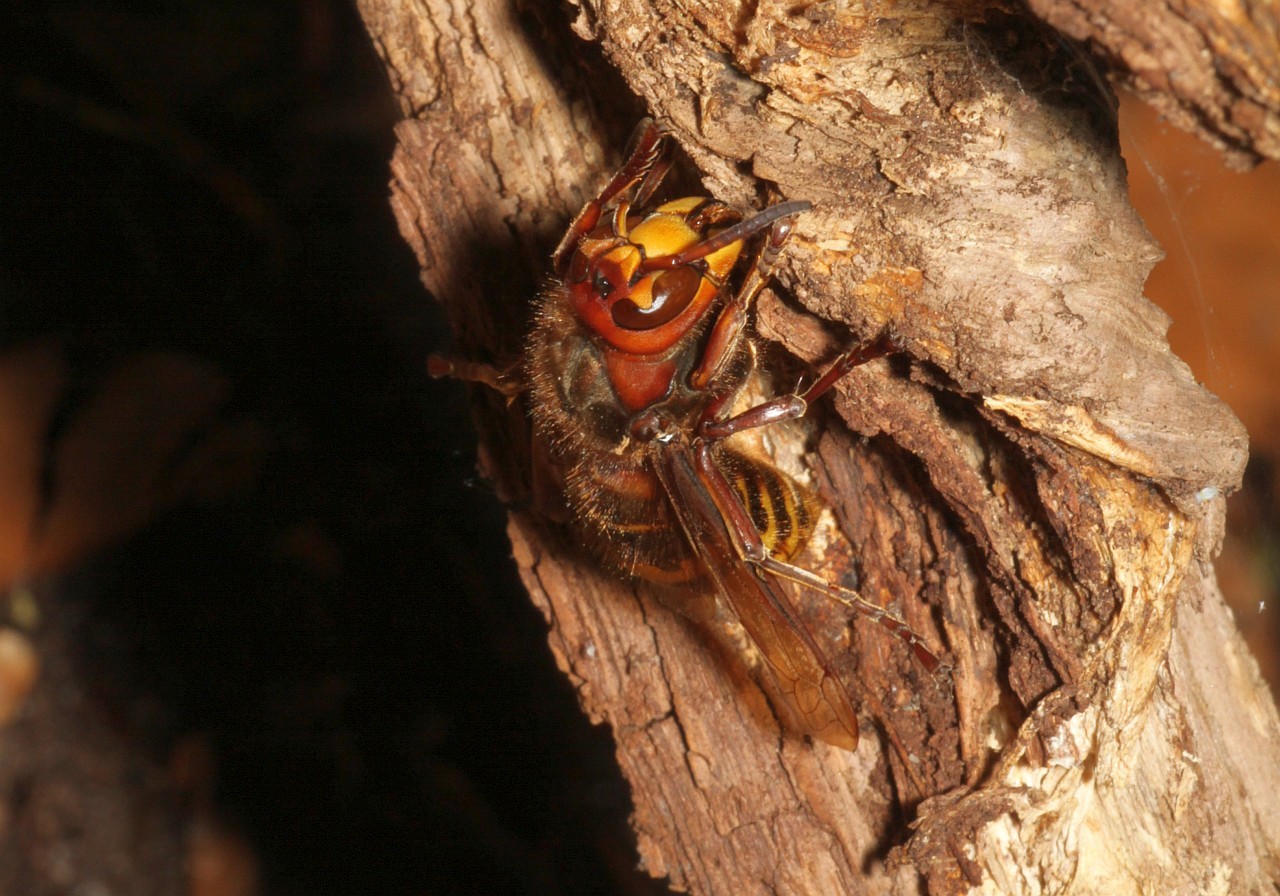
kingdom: Animalia
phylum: Arthropoda
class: Insecta
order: Hymenoptera
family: Vespidae
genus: Vespa
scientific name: Vespa crabro
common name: Hornet
